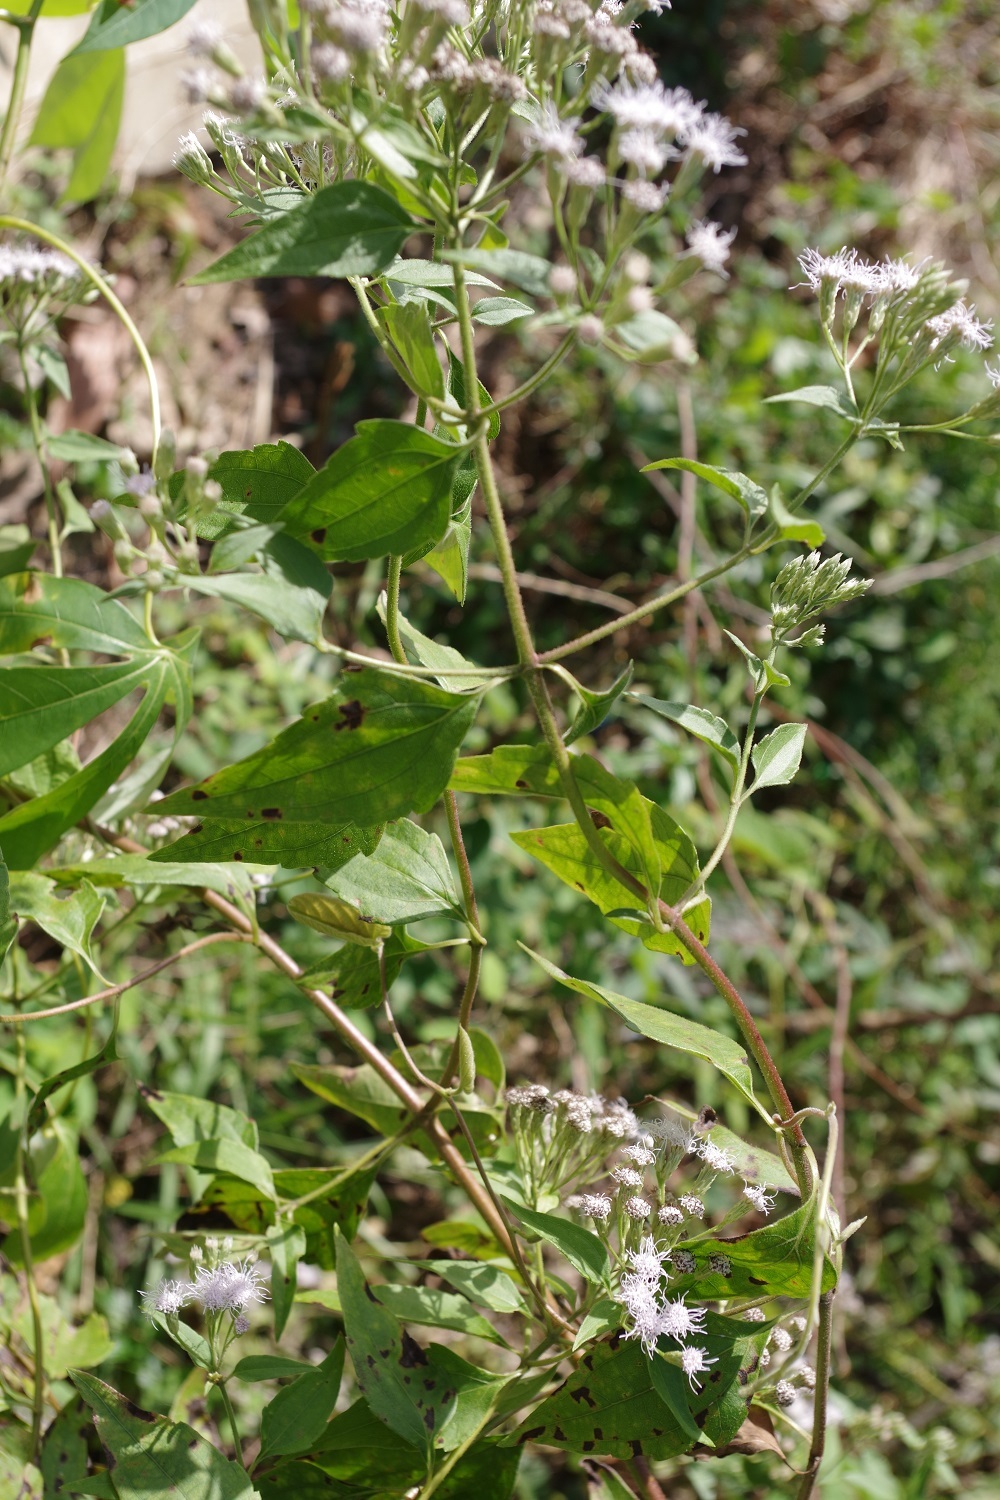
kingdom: Plantae
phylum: Tracheophyta
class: Magnoliopsida
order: Asterales
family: Asteraceae
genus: Chromolaena
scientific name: Chromolaena odorata
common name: Siamweed
